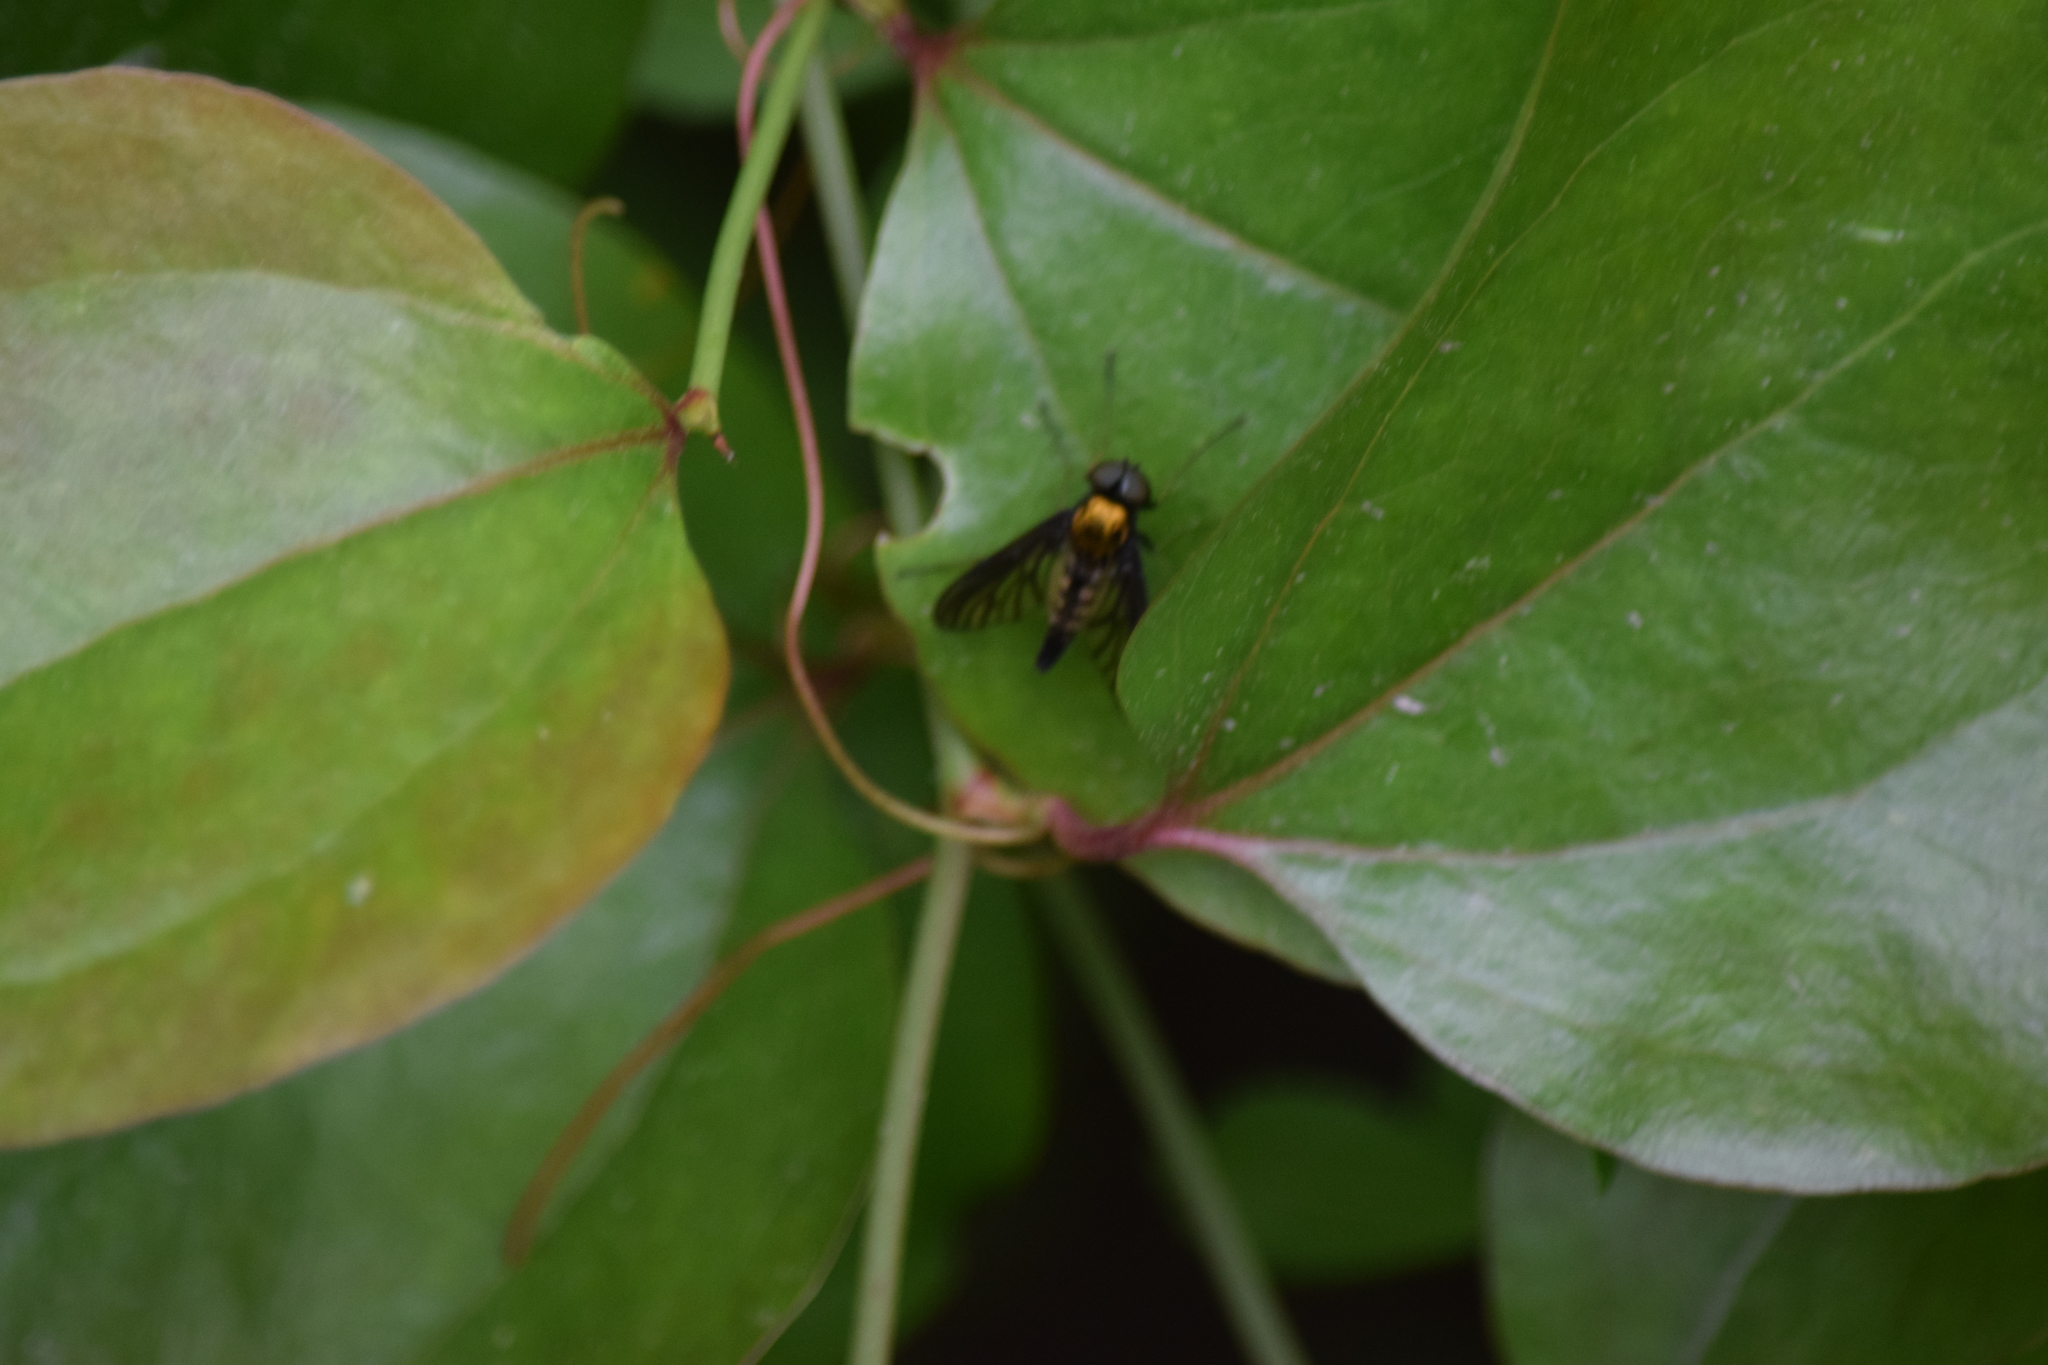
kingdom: Animalia
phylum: Arthropoda
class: Insecta
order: Diptera
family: Rhagionidae
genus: Chrysopilus
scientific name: Chrysopilus thoracicus
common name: Golden-backed snipe fly
